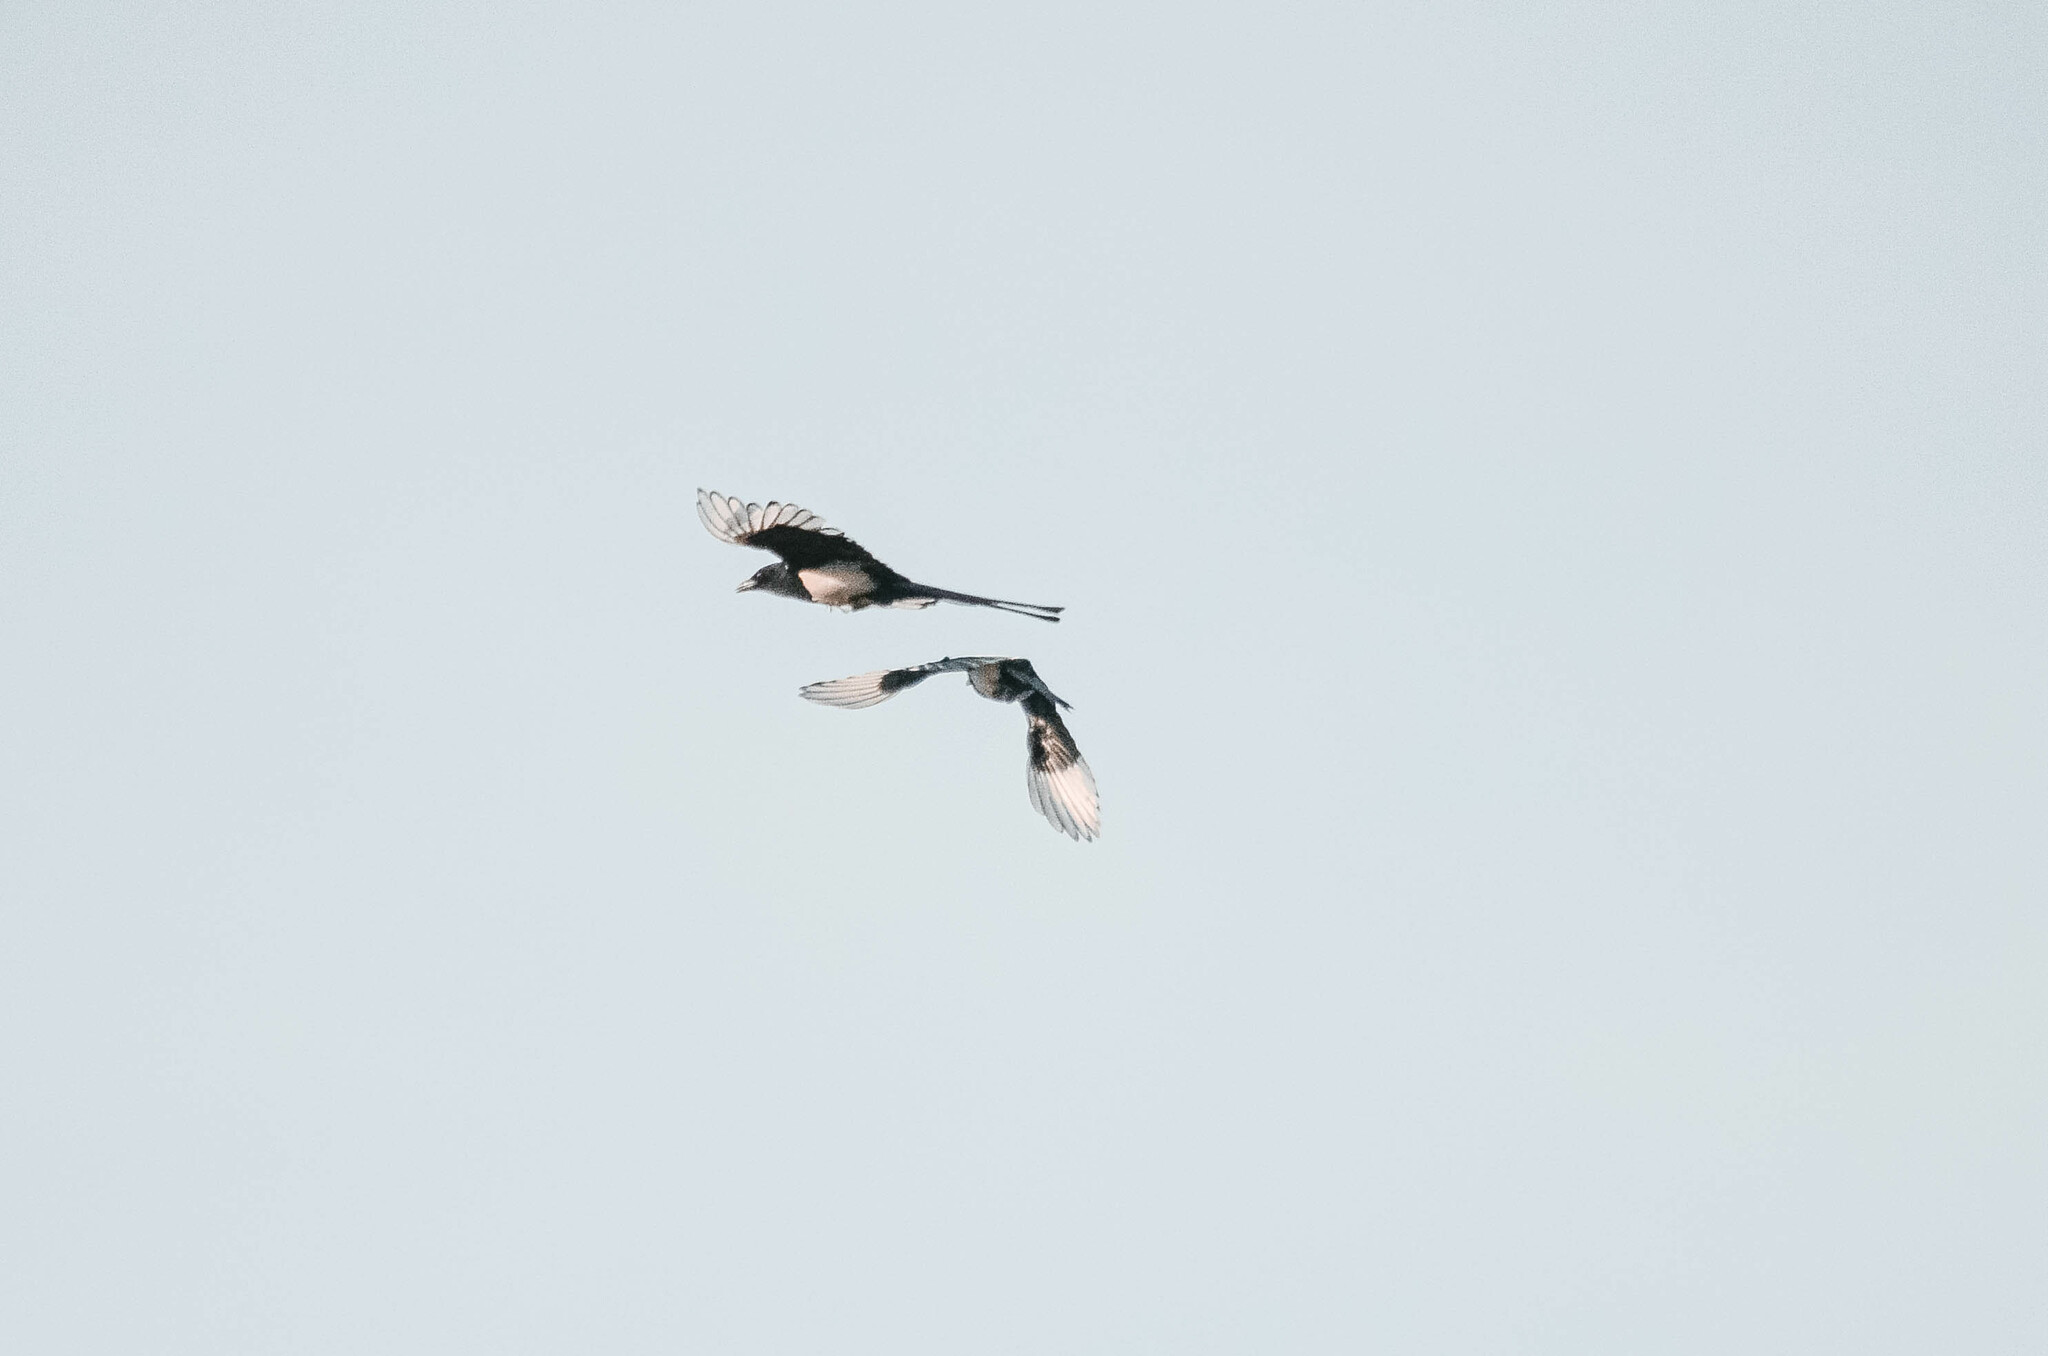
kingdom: Animalia
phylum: Chordata
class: Aves
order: Passeriformes
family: Corvidae
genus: Pica
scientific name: Pica pica
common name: Eurasian magpie
